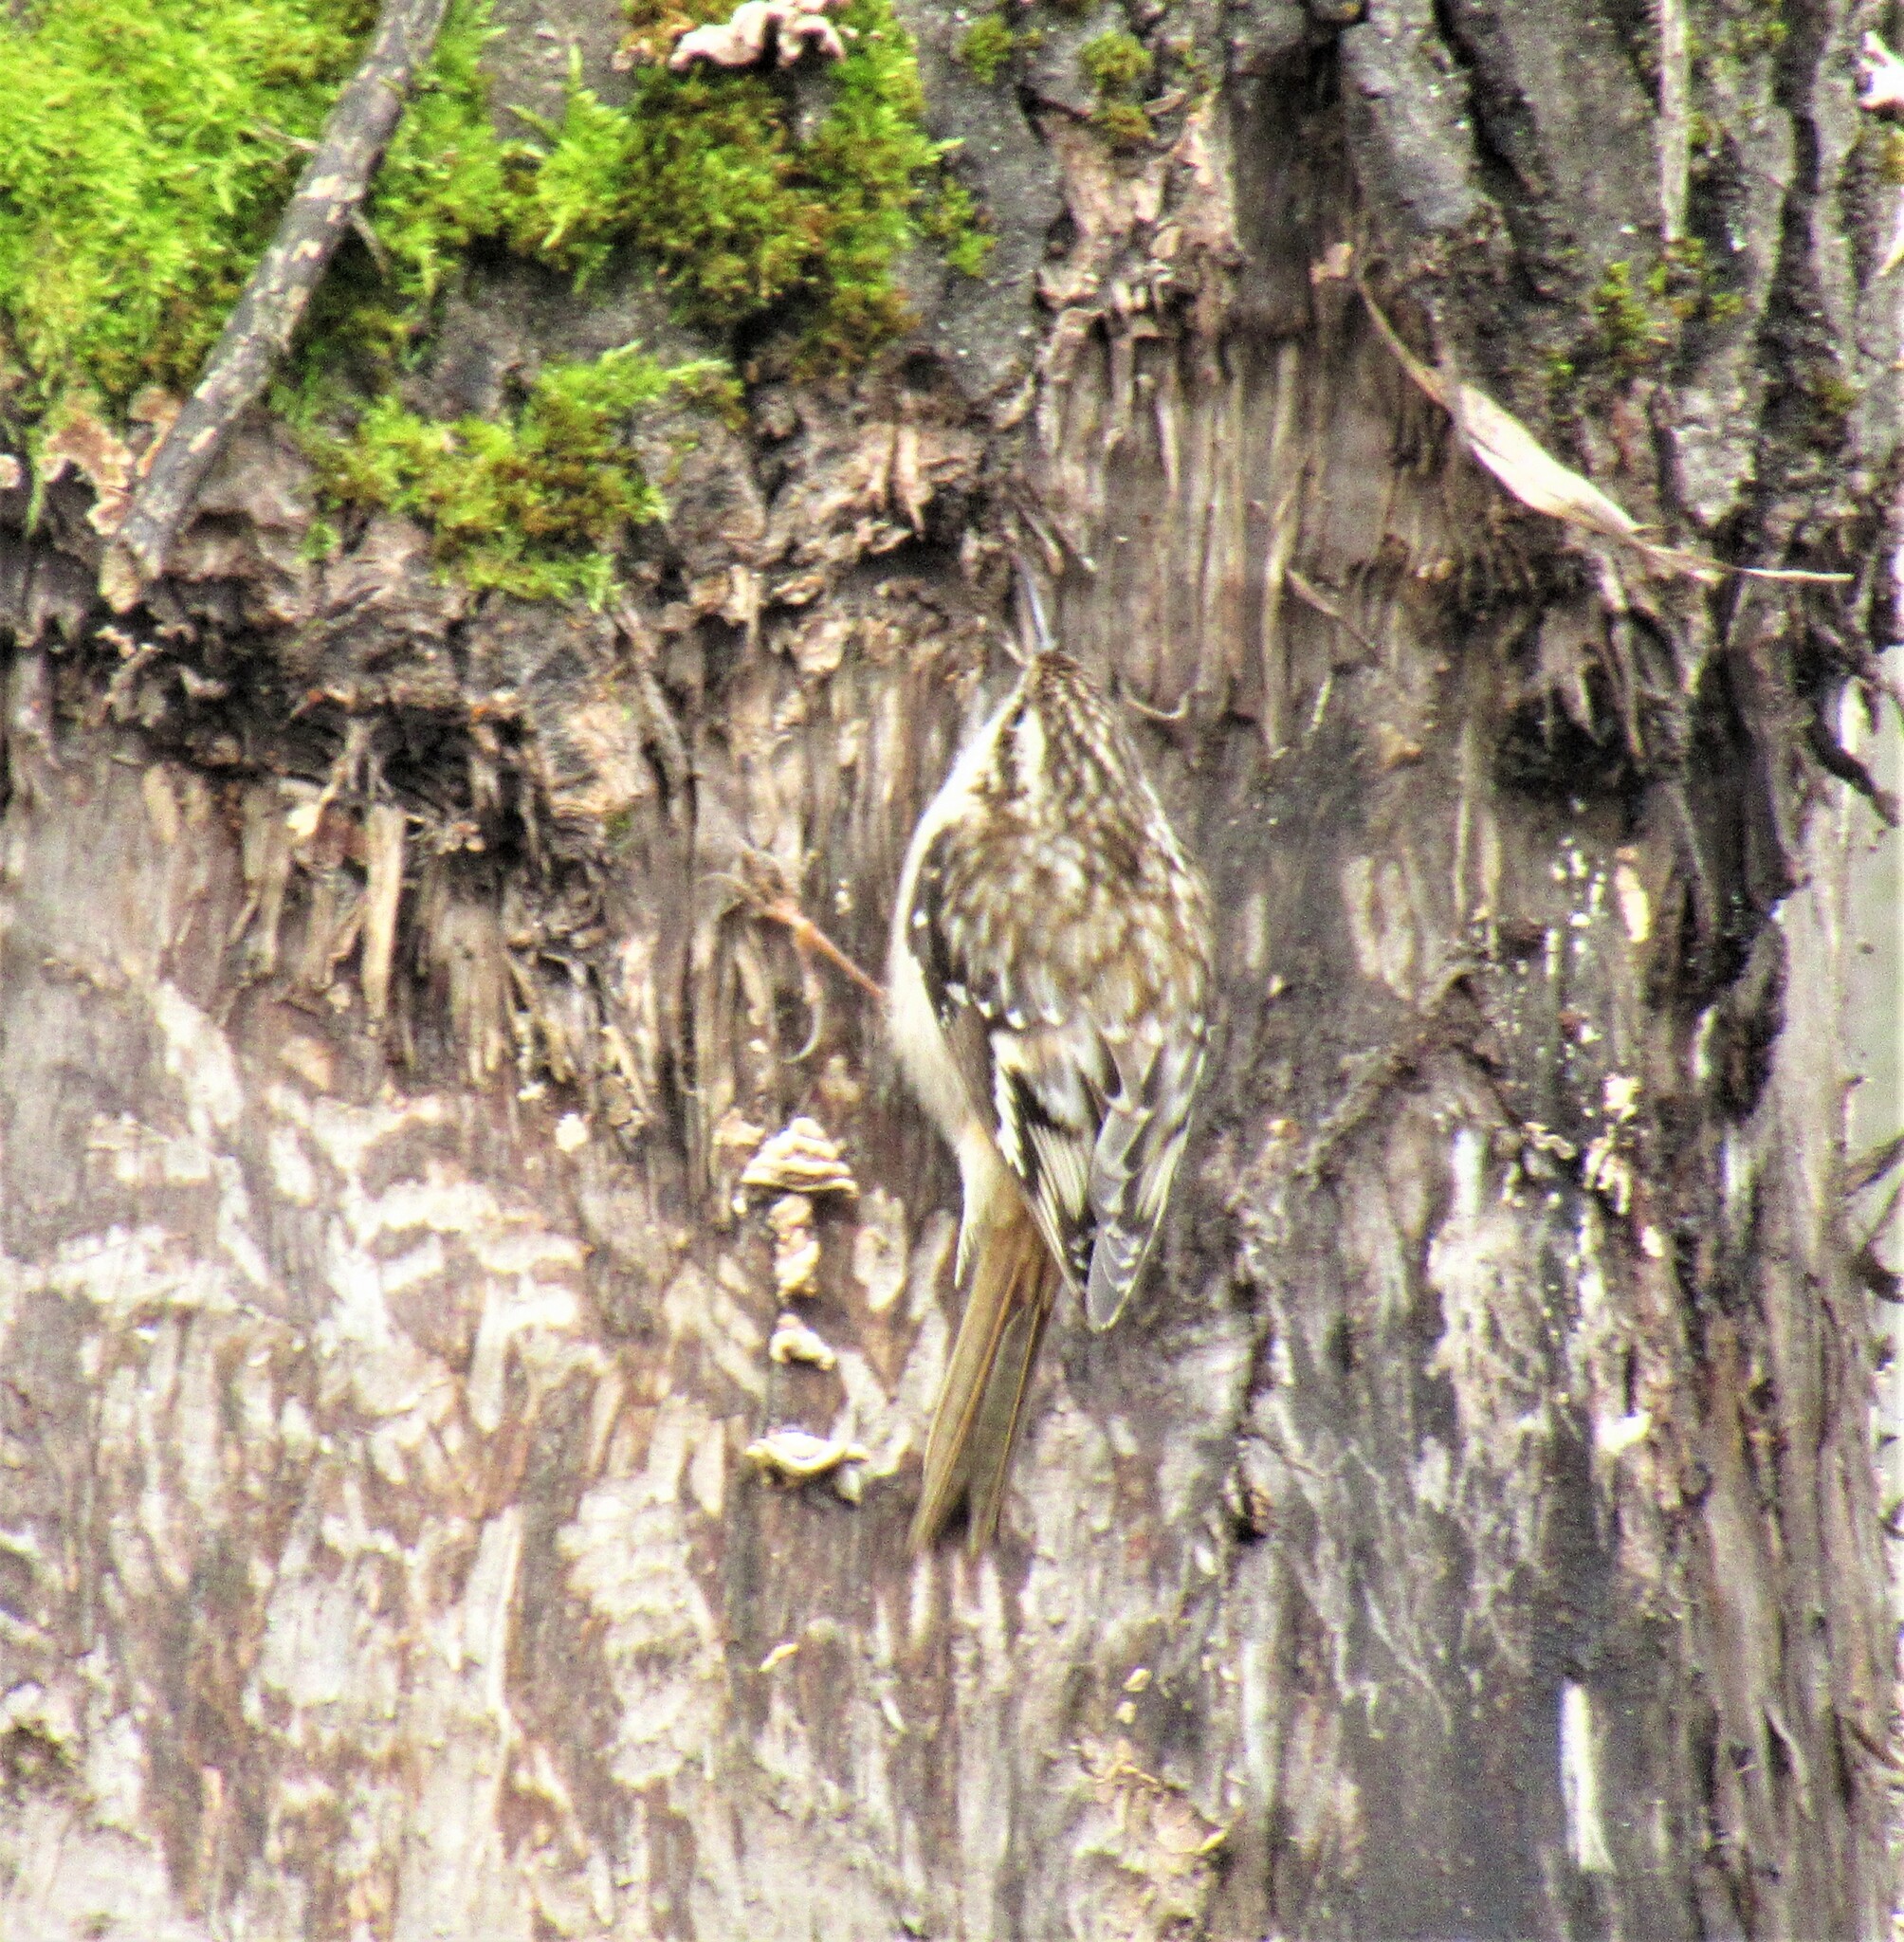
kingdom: Animalia
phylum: Chordata
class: Aves
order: Passeriformes
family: Certhiidae
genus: Certhia
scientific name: Certhia americana
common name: Brown creeper
